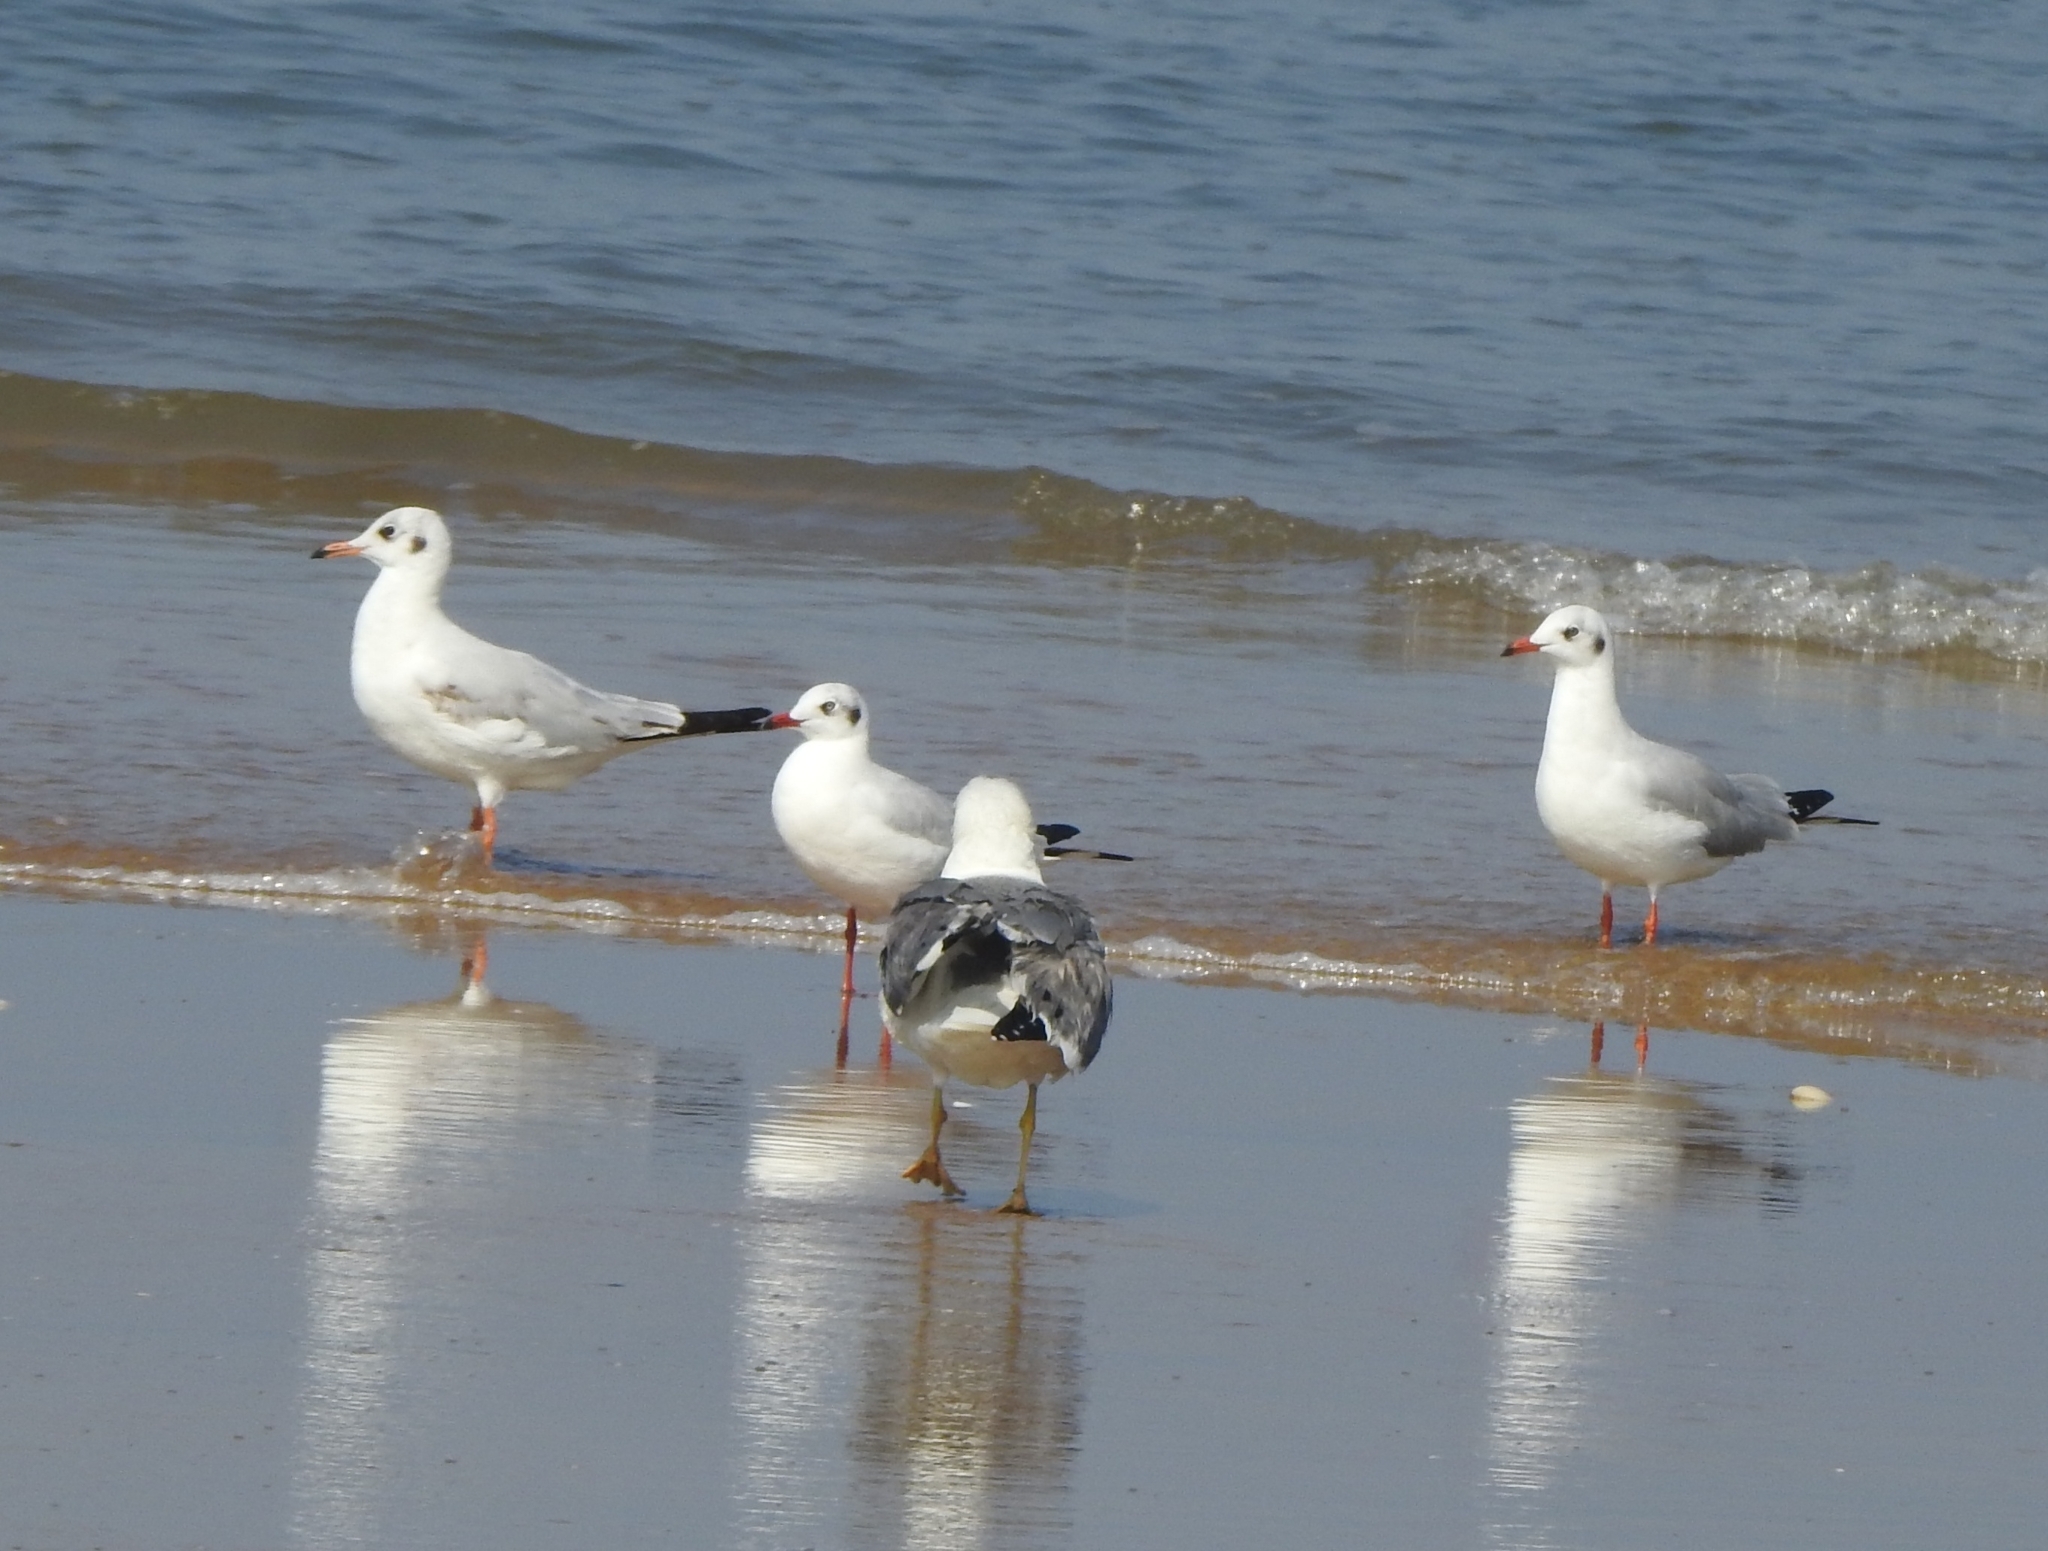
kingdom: Animalia
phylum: Chordata
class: Aves
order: Charadriiformes
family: Laridae
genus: Chroicocephalus
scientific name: Chroicocephalus brunnicephalus
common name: Brown-headed gull
